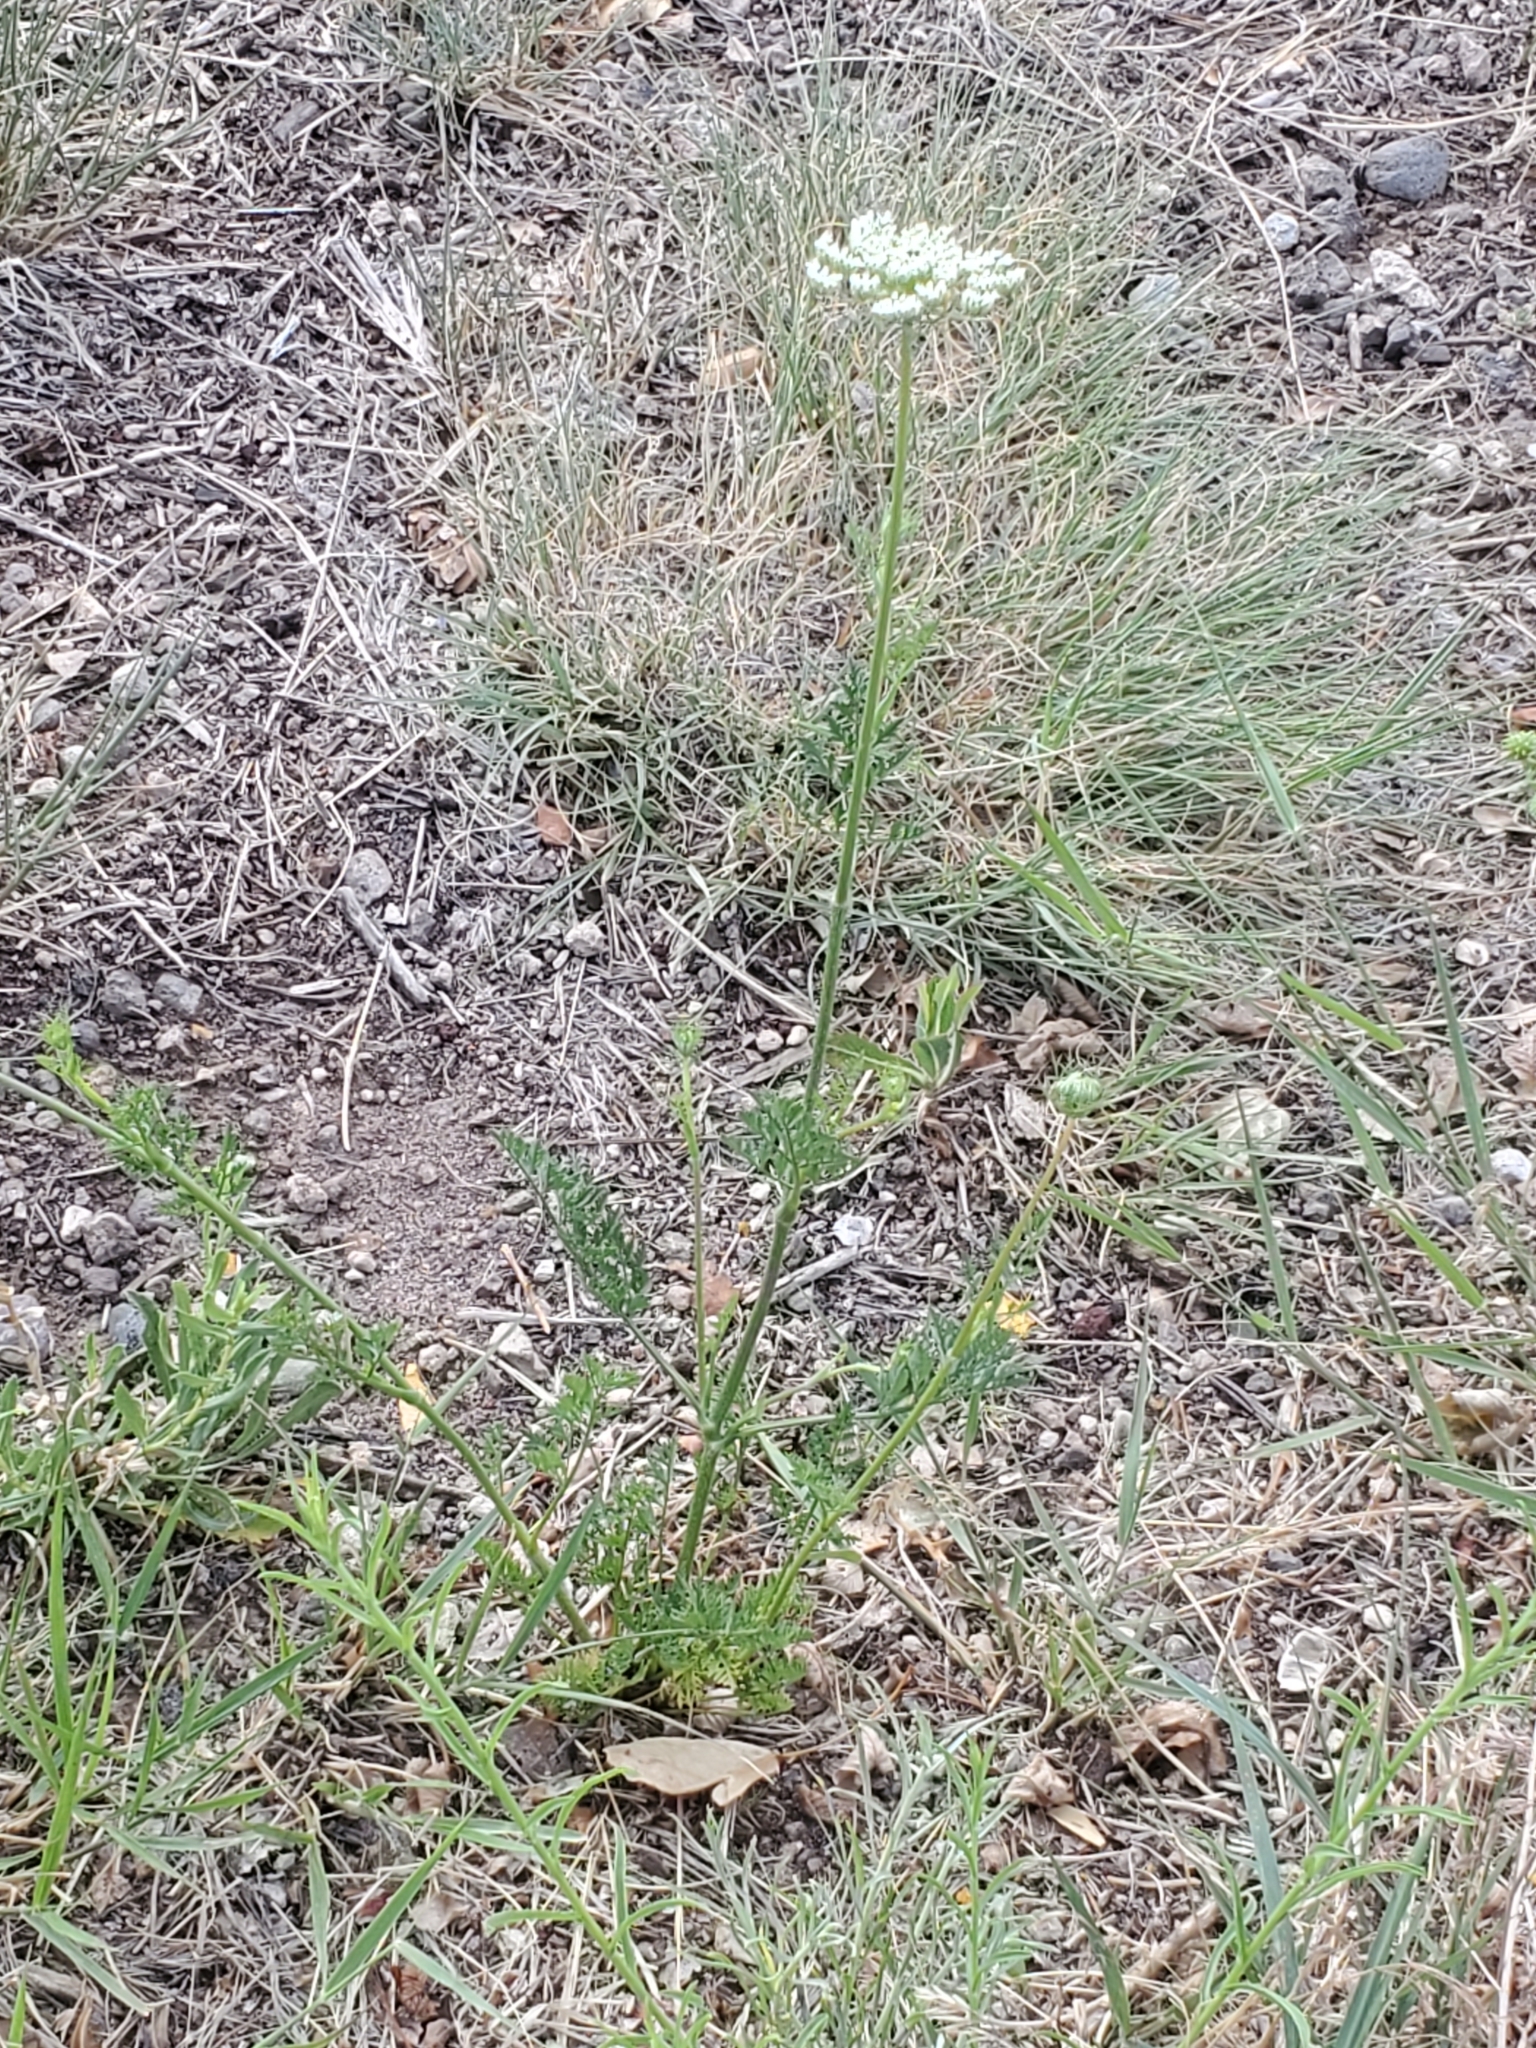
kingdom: Plantae
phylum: Tracheophyta
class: Magnoliopsida
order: Apiales
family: Apiaceae
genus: Daucus
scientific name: Daucus carota
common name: Wild carrot
